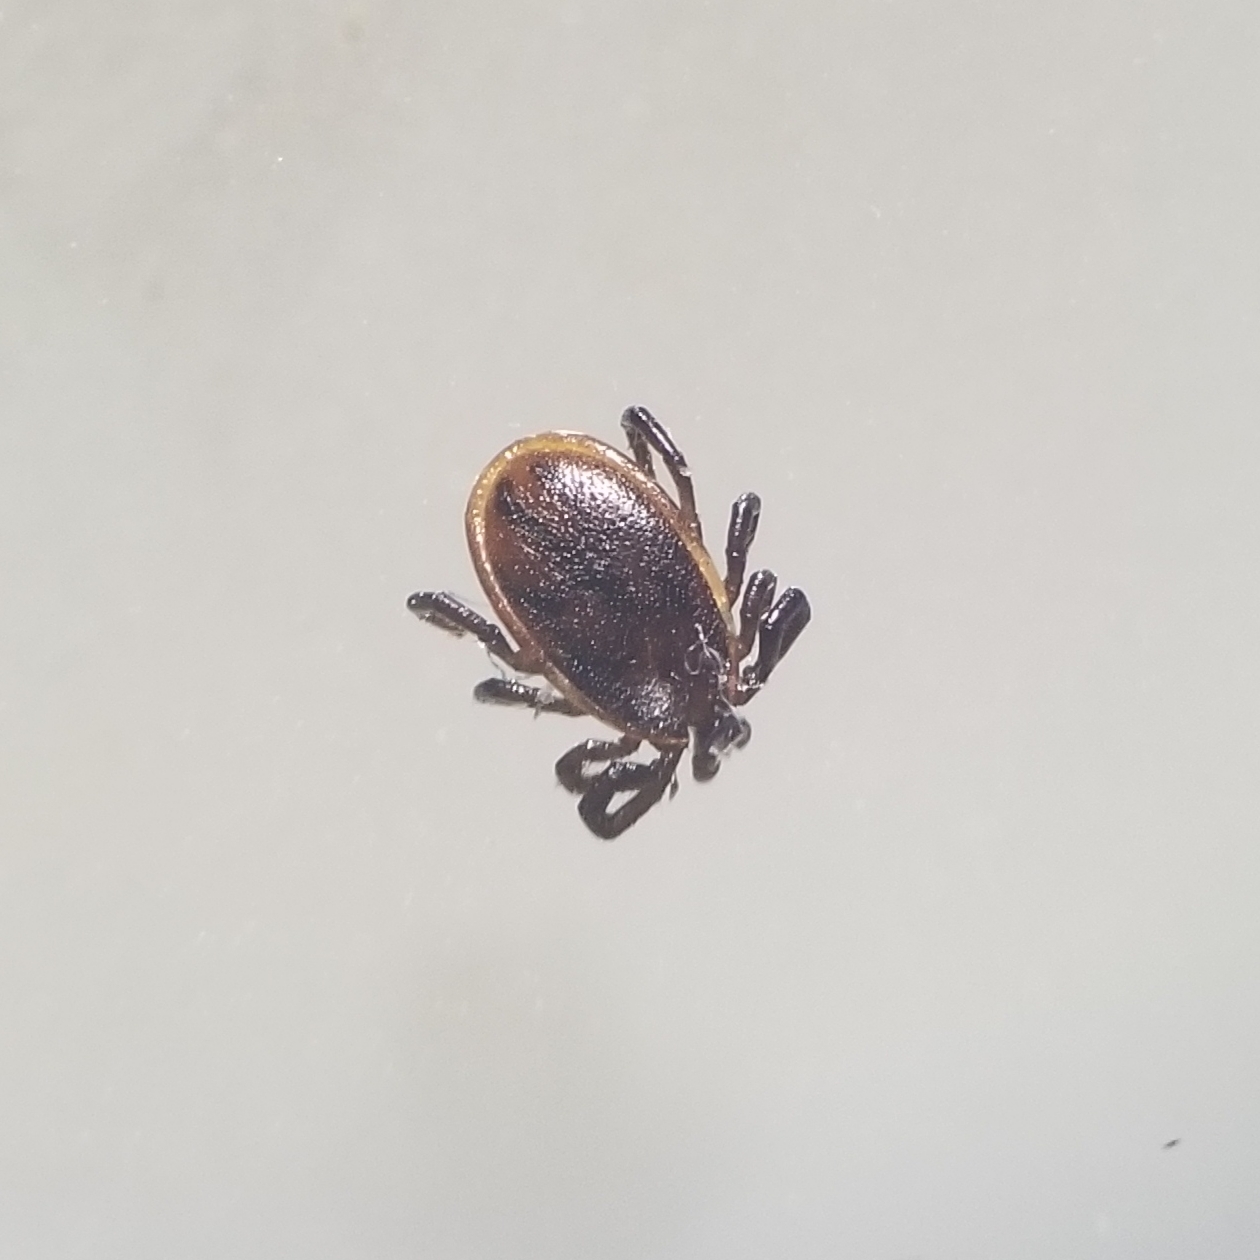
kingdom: Animalia
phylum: Arthropoda
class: Arachnida
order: Ixodida
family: Ixodidae
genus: Ixodes
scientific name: Ixodes scapularis
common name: Black legged tick
